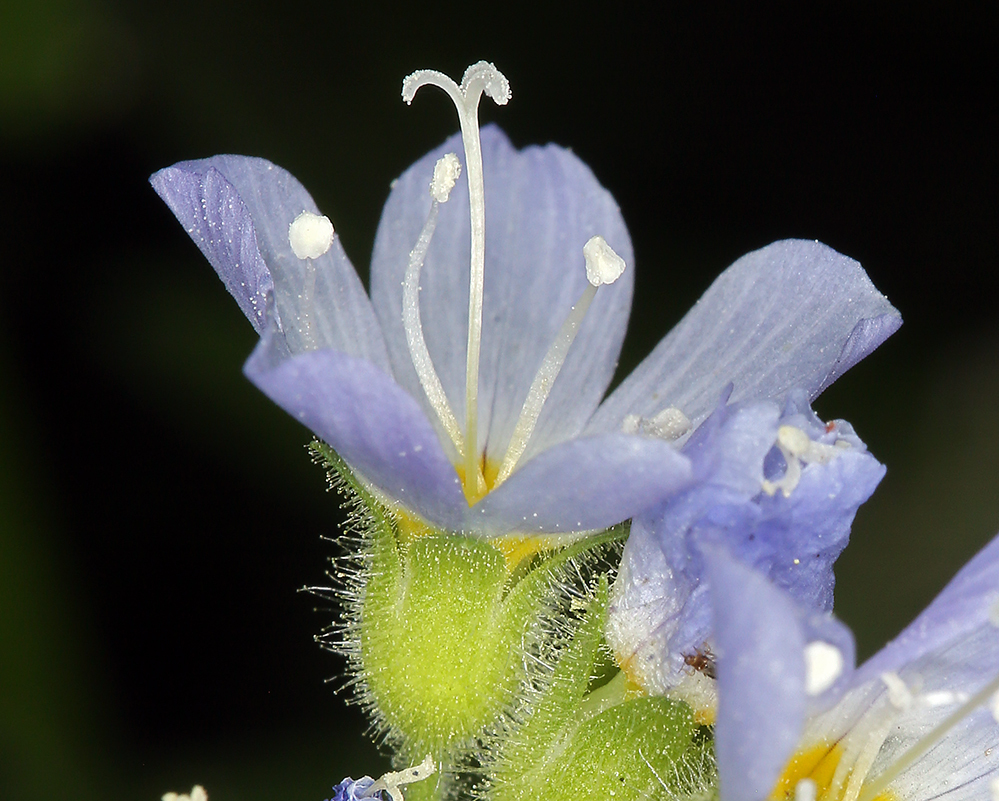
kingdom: Plantae
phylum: Tracheophyta
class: Magnoliopsida
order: Ericales
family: Polemoniaceae
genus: Polemonium
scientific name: Polemonium californicum
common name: California jacob's ladder
